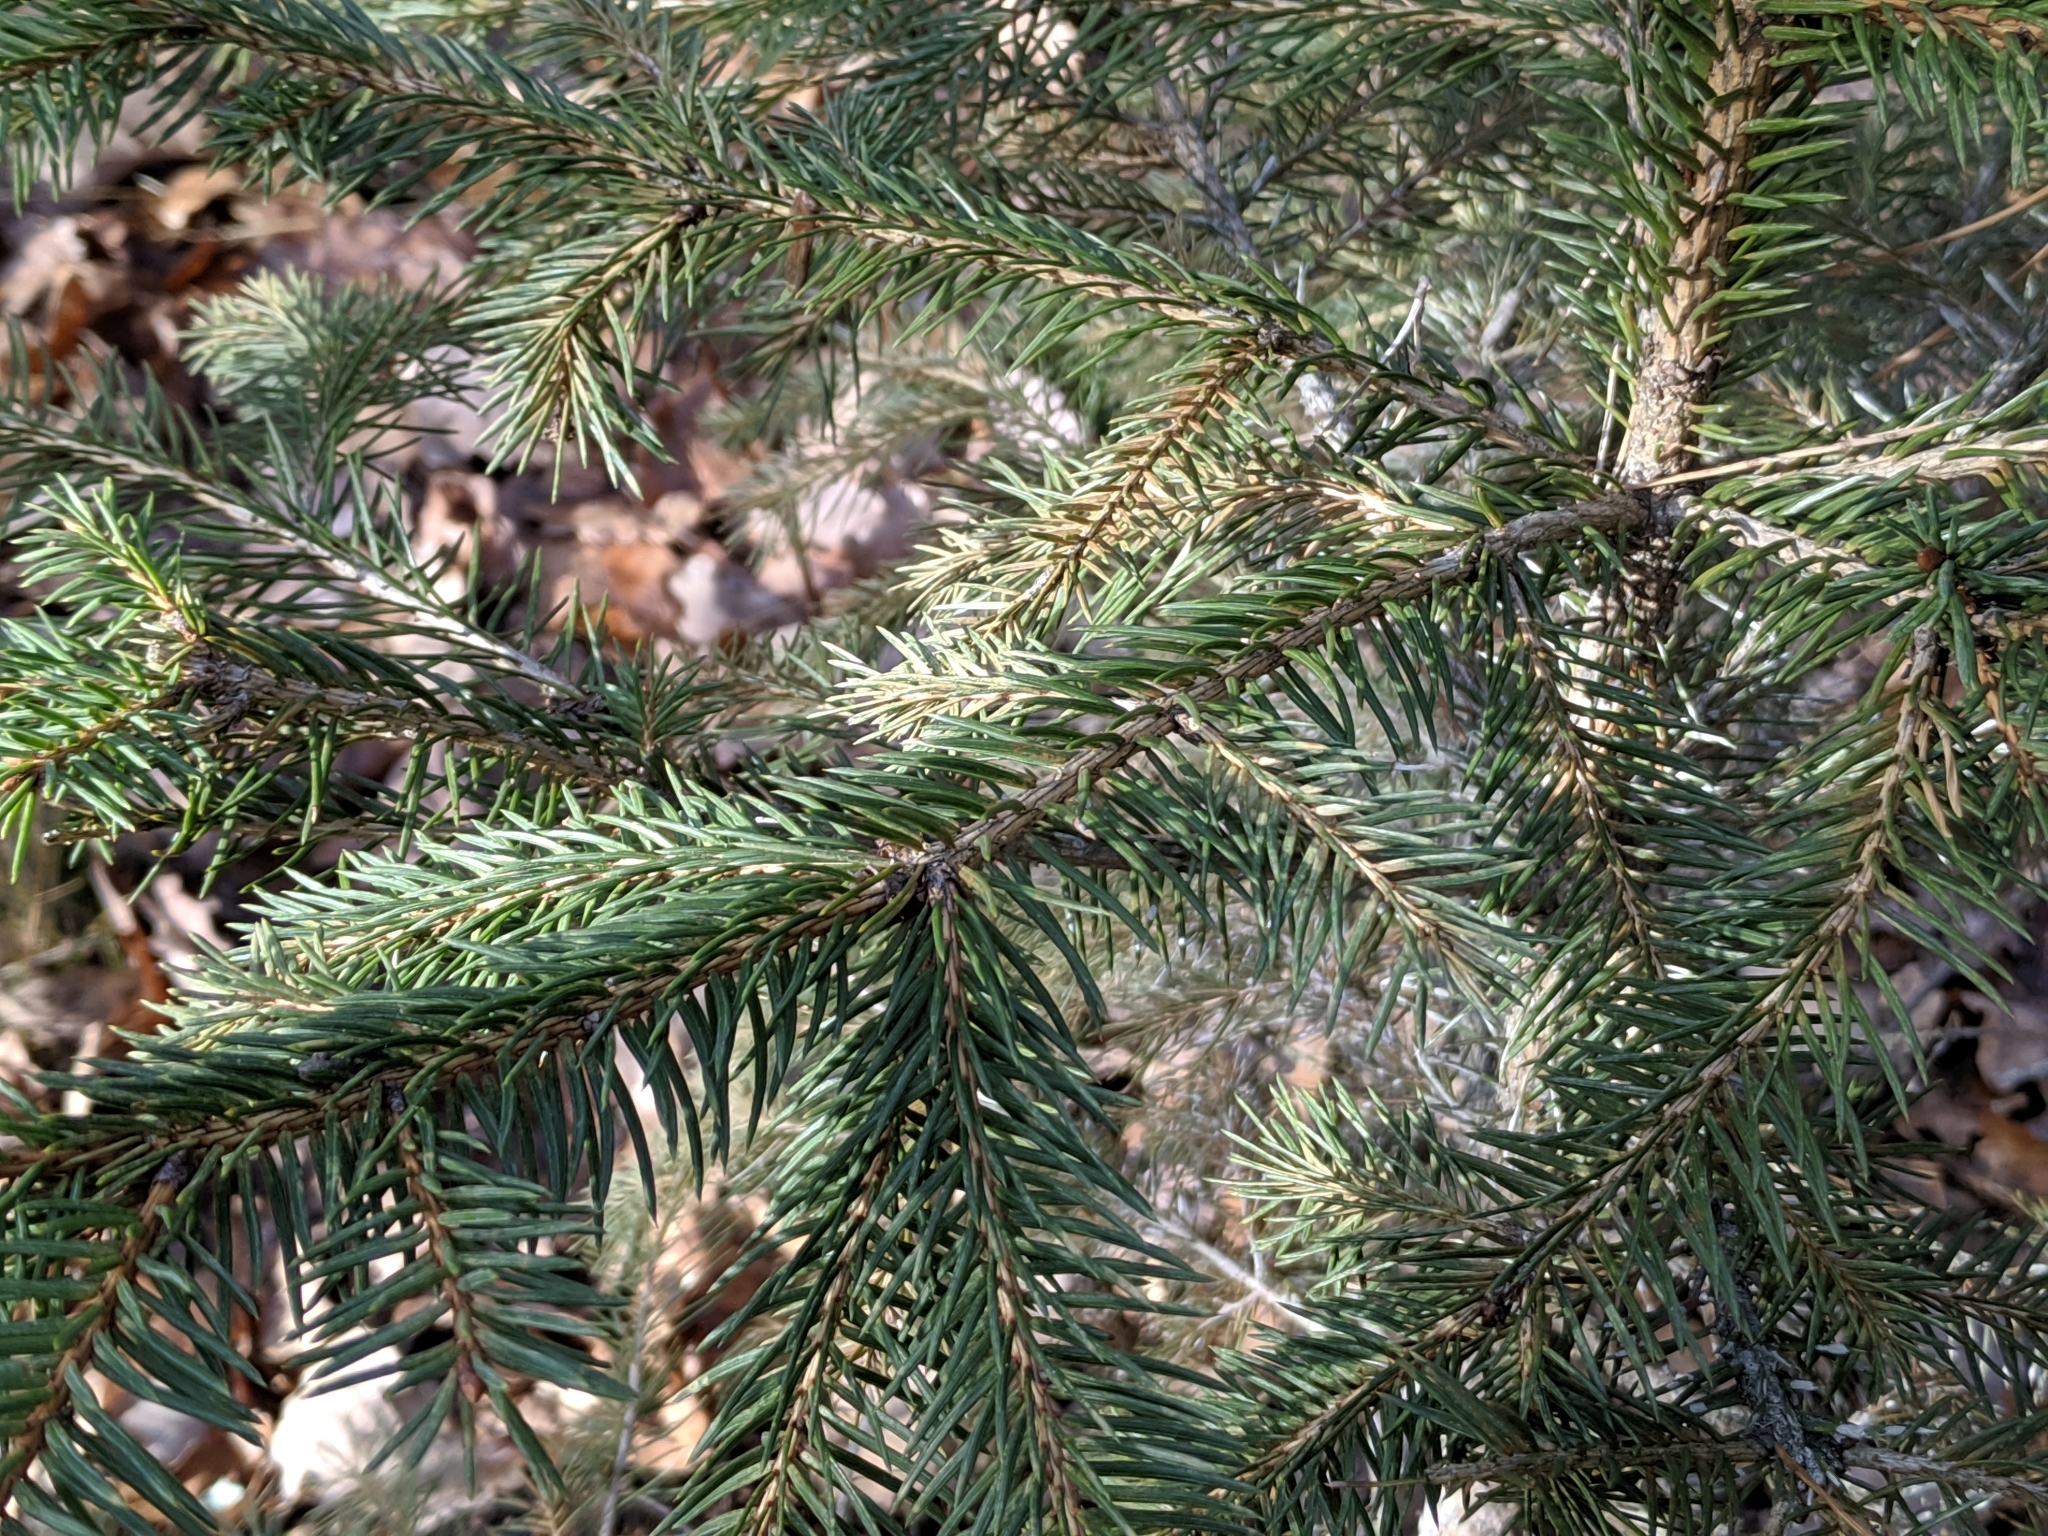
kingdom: Plantae
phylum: Tracheophyta
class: Pinopsida
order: Pinales
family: Pinaceae
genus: Picea
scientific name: Picea abies
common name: Norway spruce
